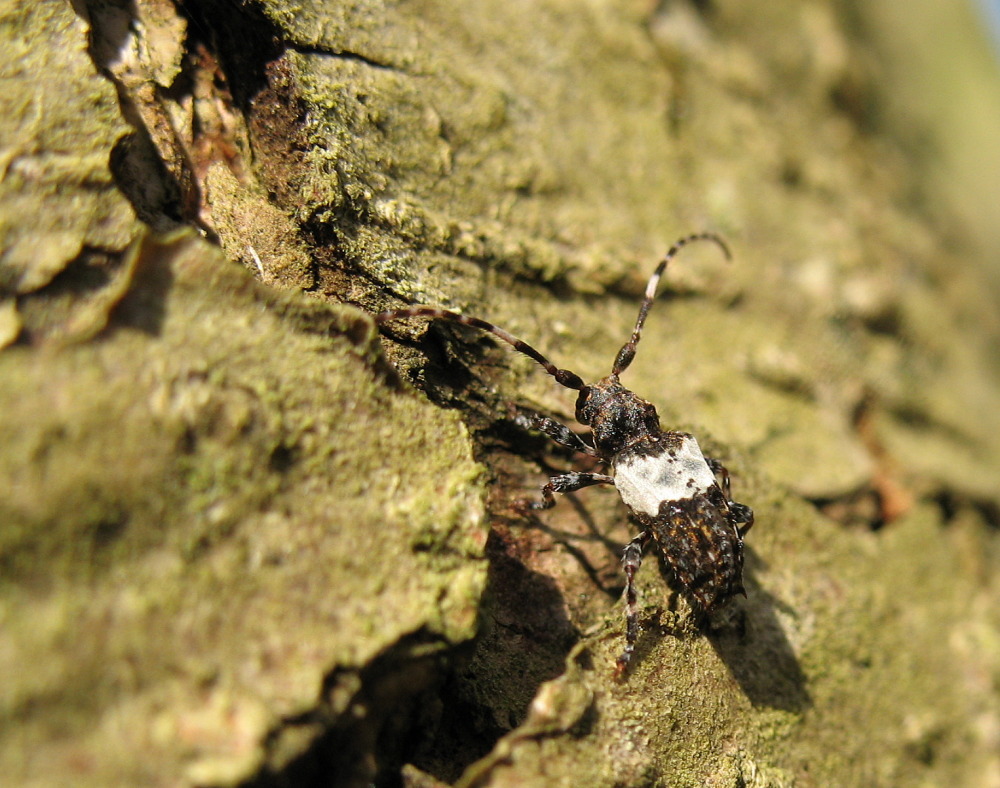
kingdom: Animalia
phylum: Arthropoda
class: Insecta
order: Coleoptera
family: Cerambycidae
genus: Pogonocherus
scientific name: Pogonocherus hispidulus
